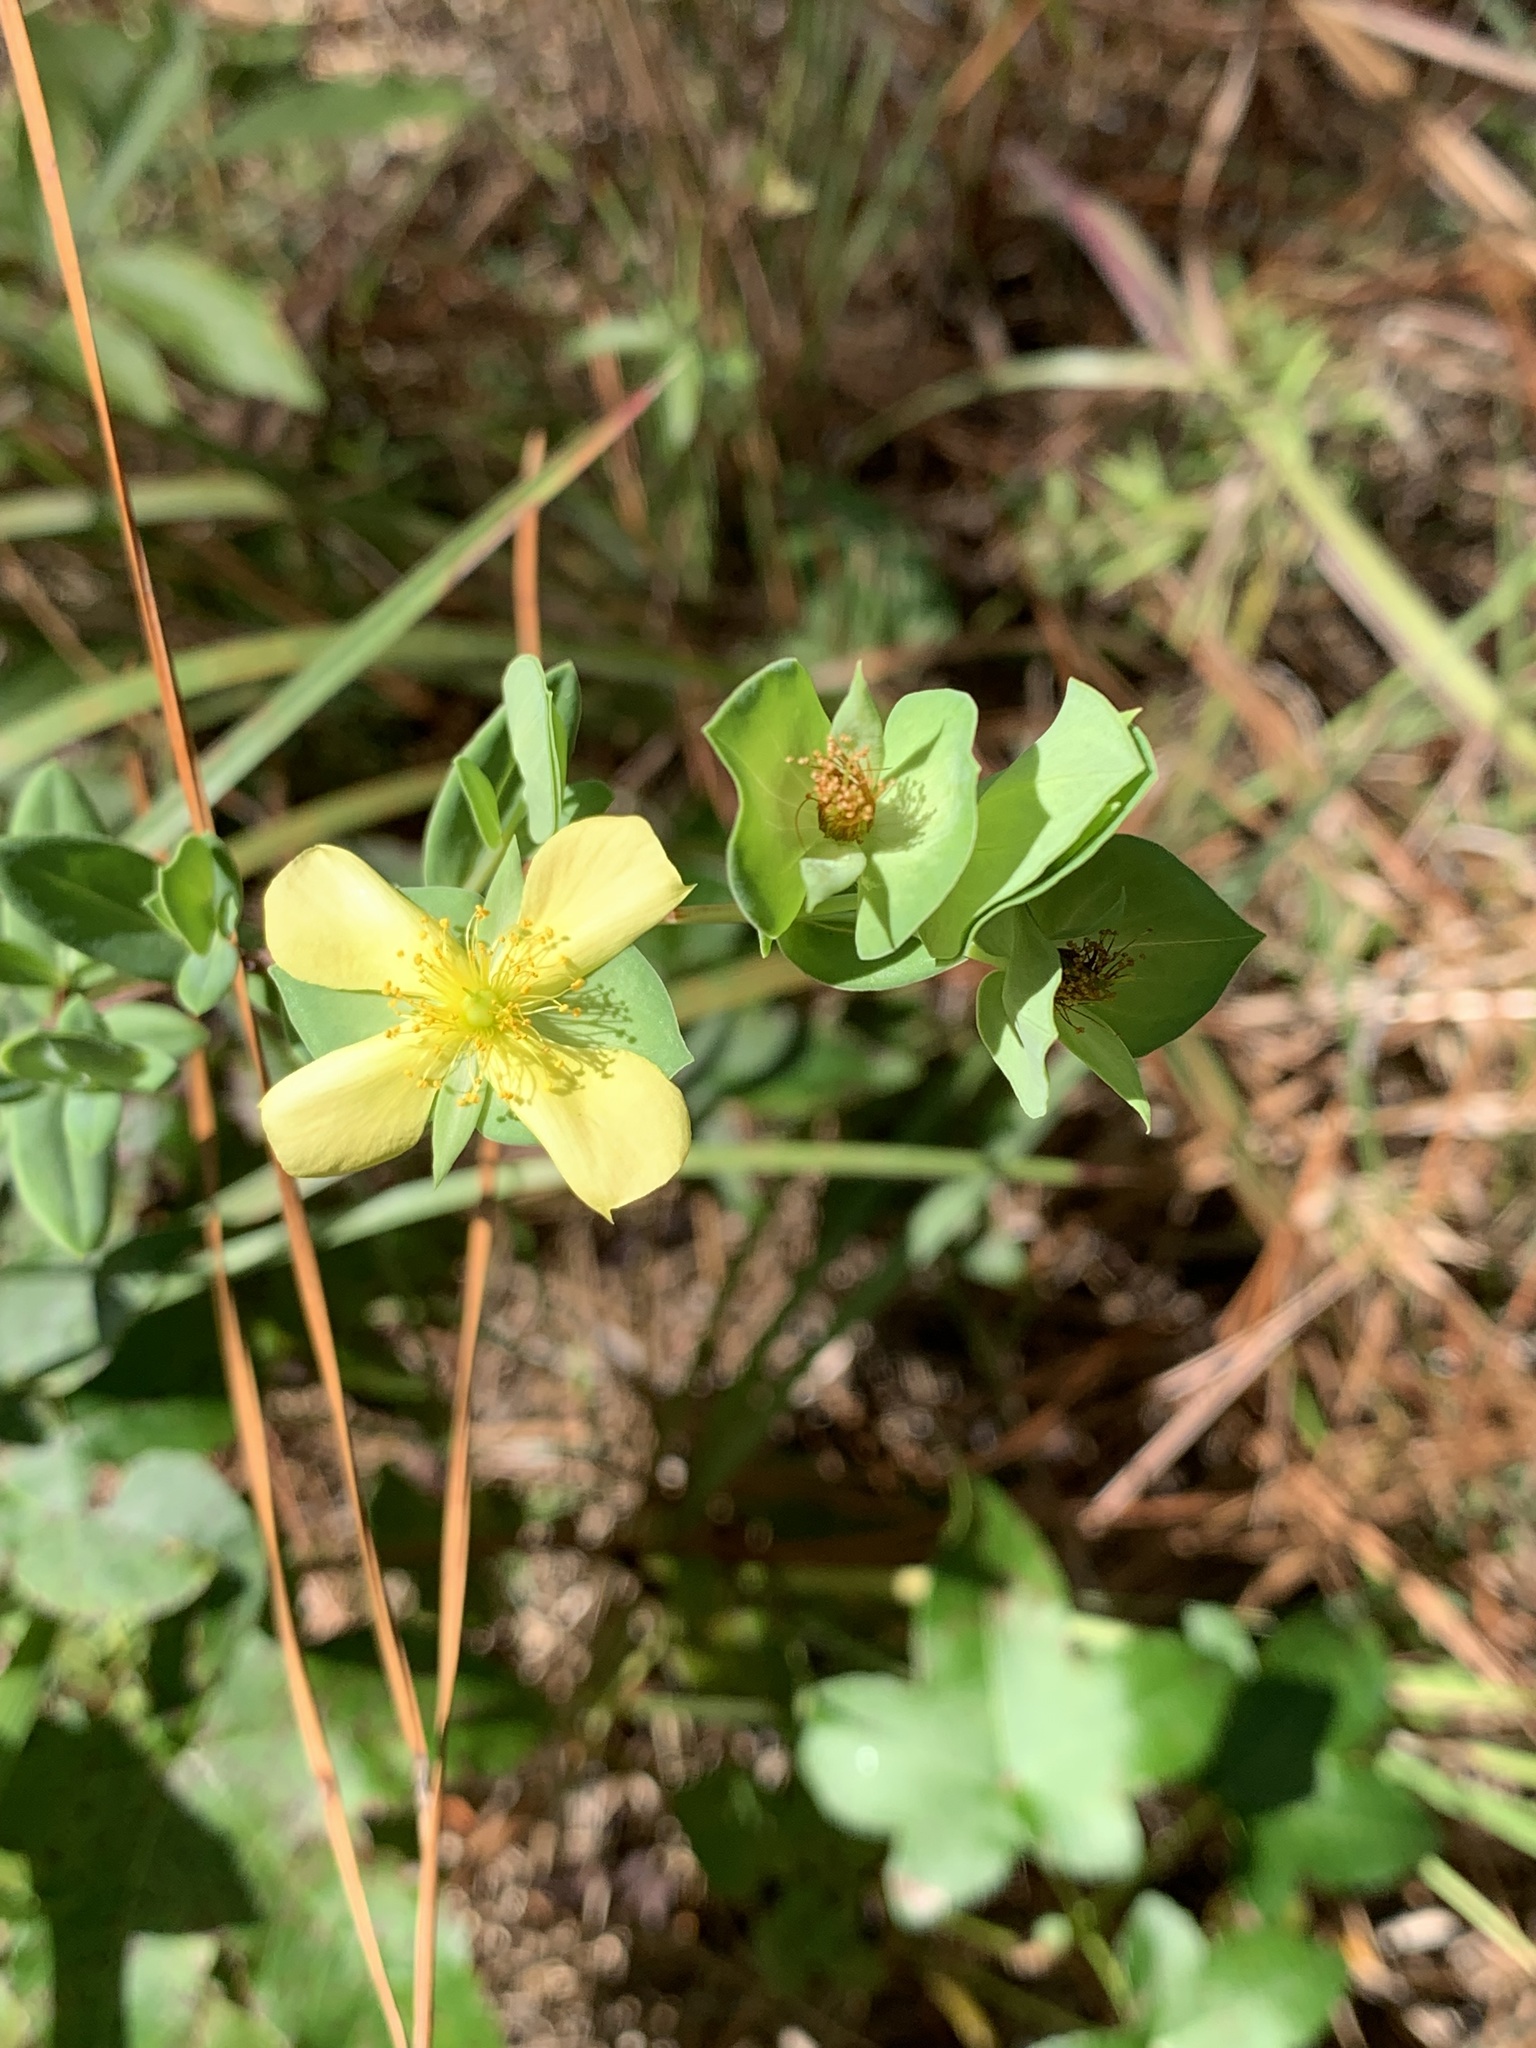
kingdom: Plantae
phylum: Tracheophyta
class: Magnoliopsida
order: Malpighiales
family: Hypericaceae
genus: Hypericum
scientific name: Hypericum crux-andreae
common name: St.-peter's-wort
